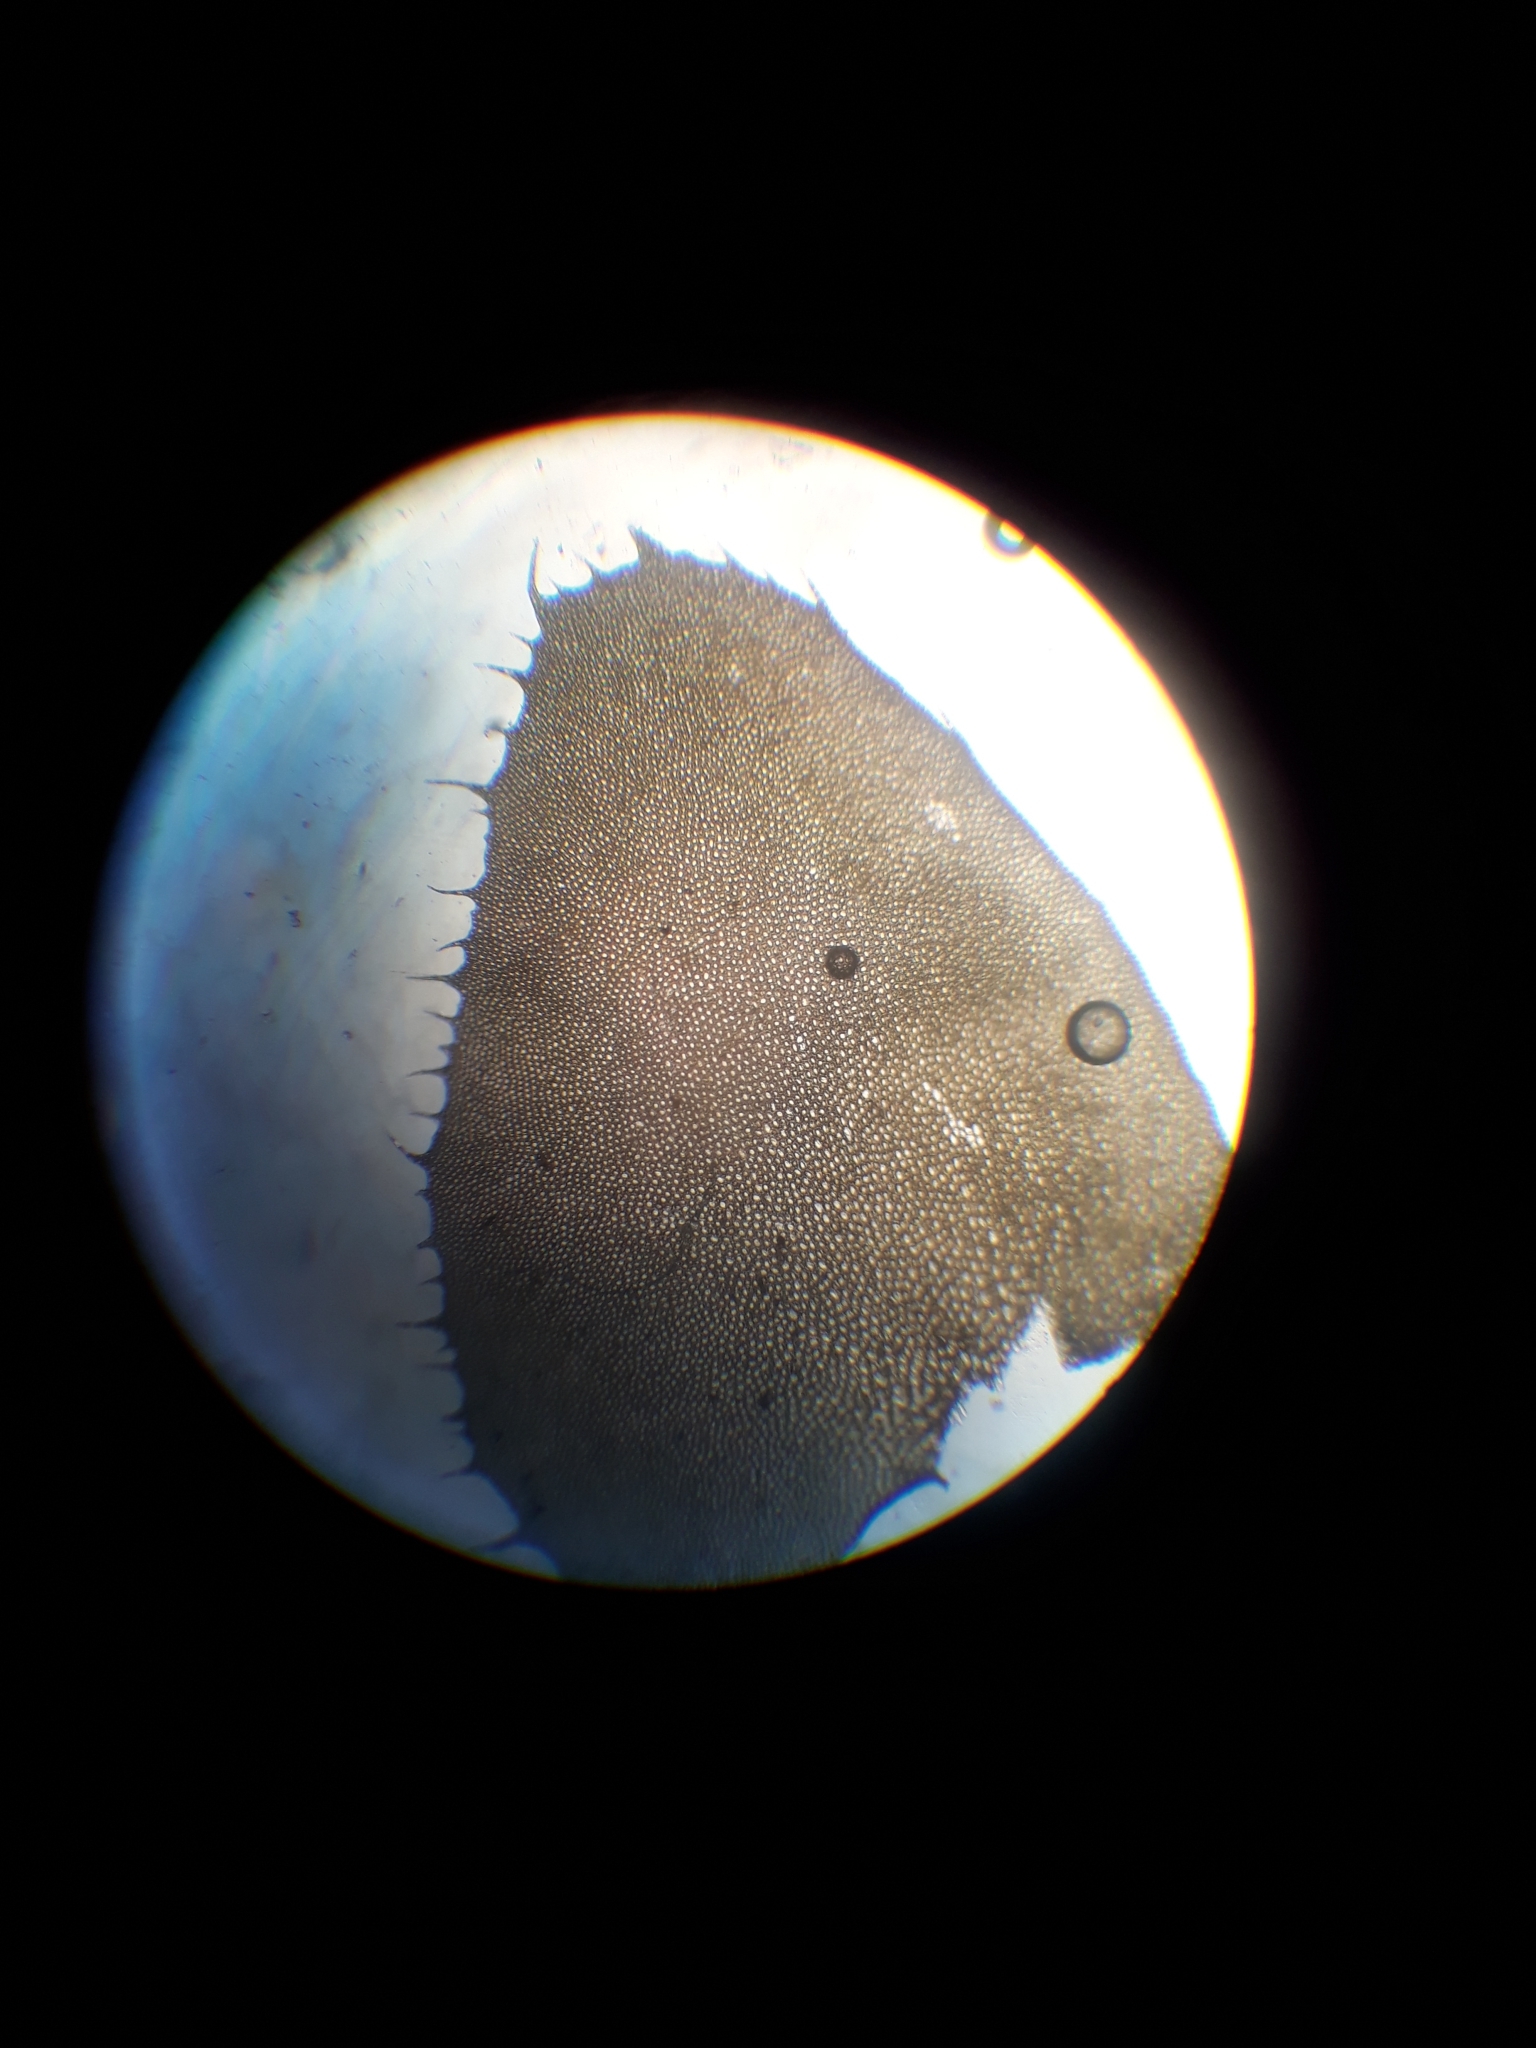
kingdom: Plantae
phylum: Marchantiophyta
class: Jungermanniopsida
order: Jungermanniales
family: Plagiochilaceae
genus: Plagiochila
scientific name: Plagiochila intertexta
